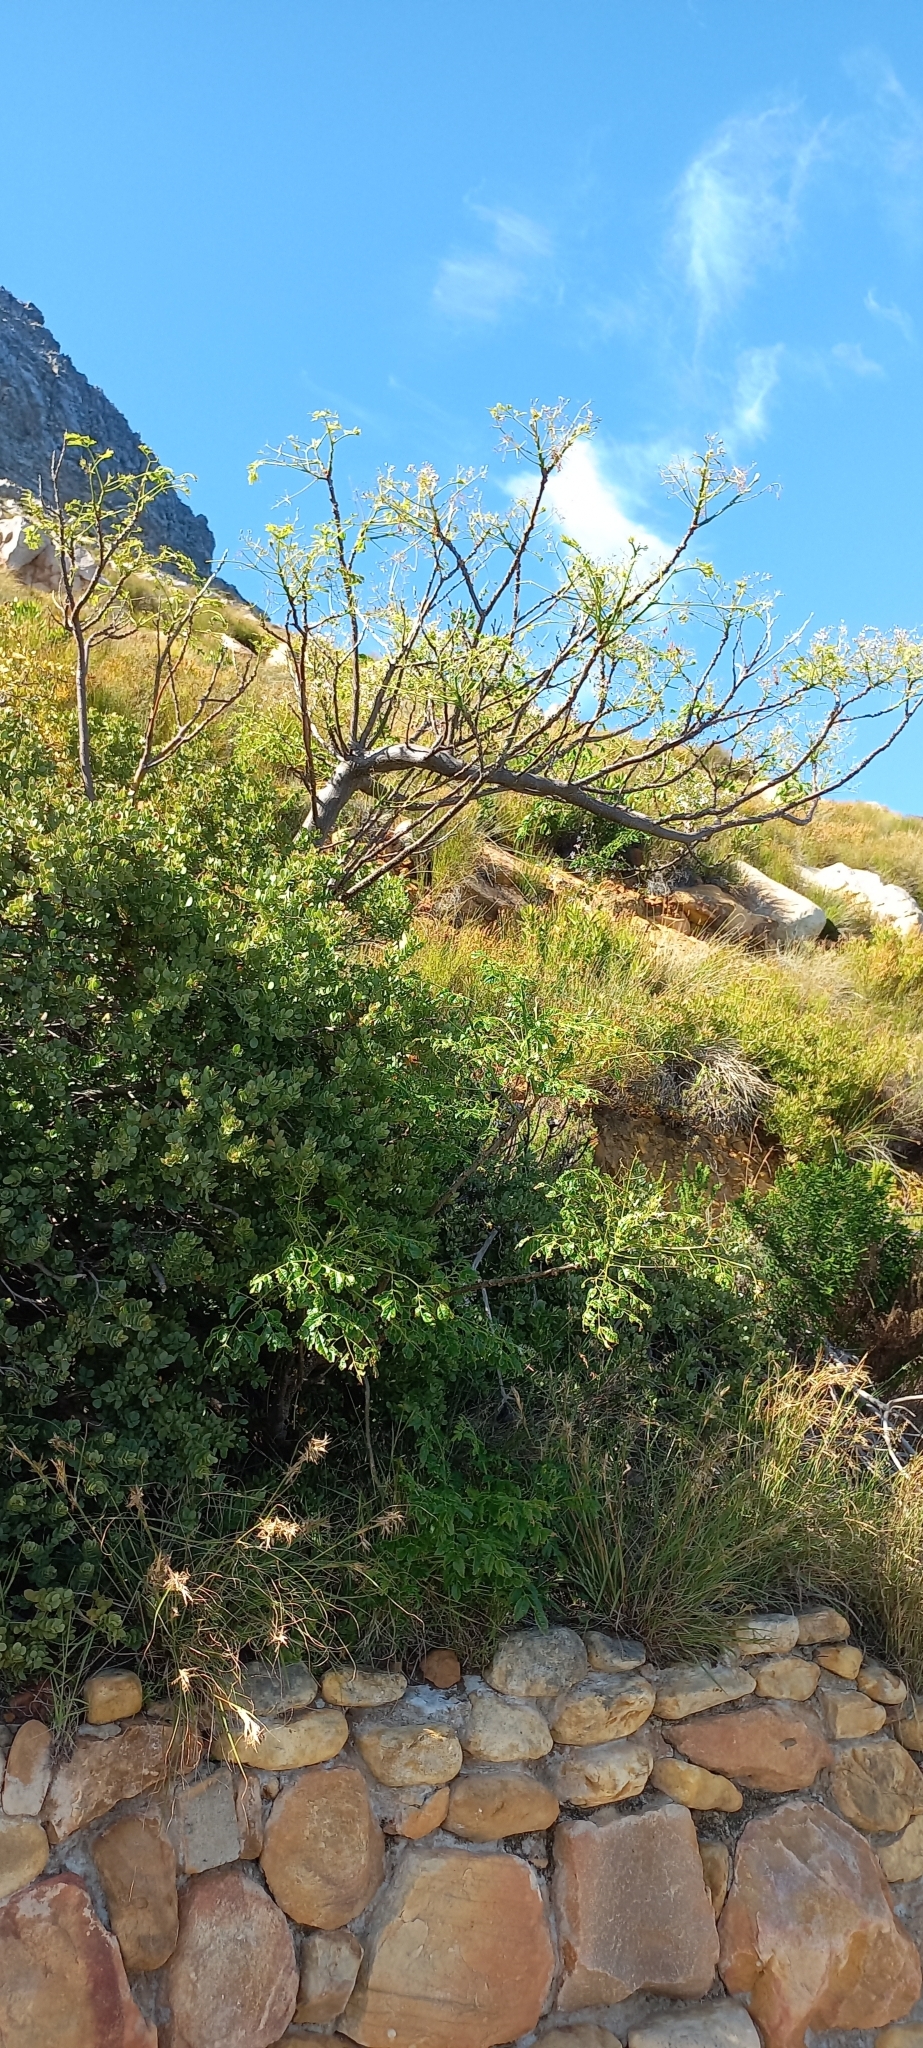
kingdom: Plantae
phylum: Tracheophyta
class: Magnoliopsida
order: Sapindales
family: Meliaceae
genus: Melia
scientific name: Melia azedarach
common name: Chinaberrytree
